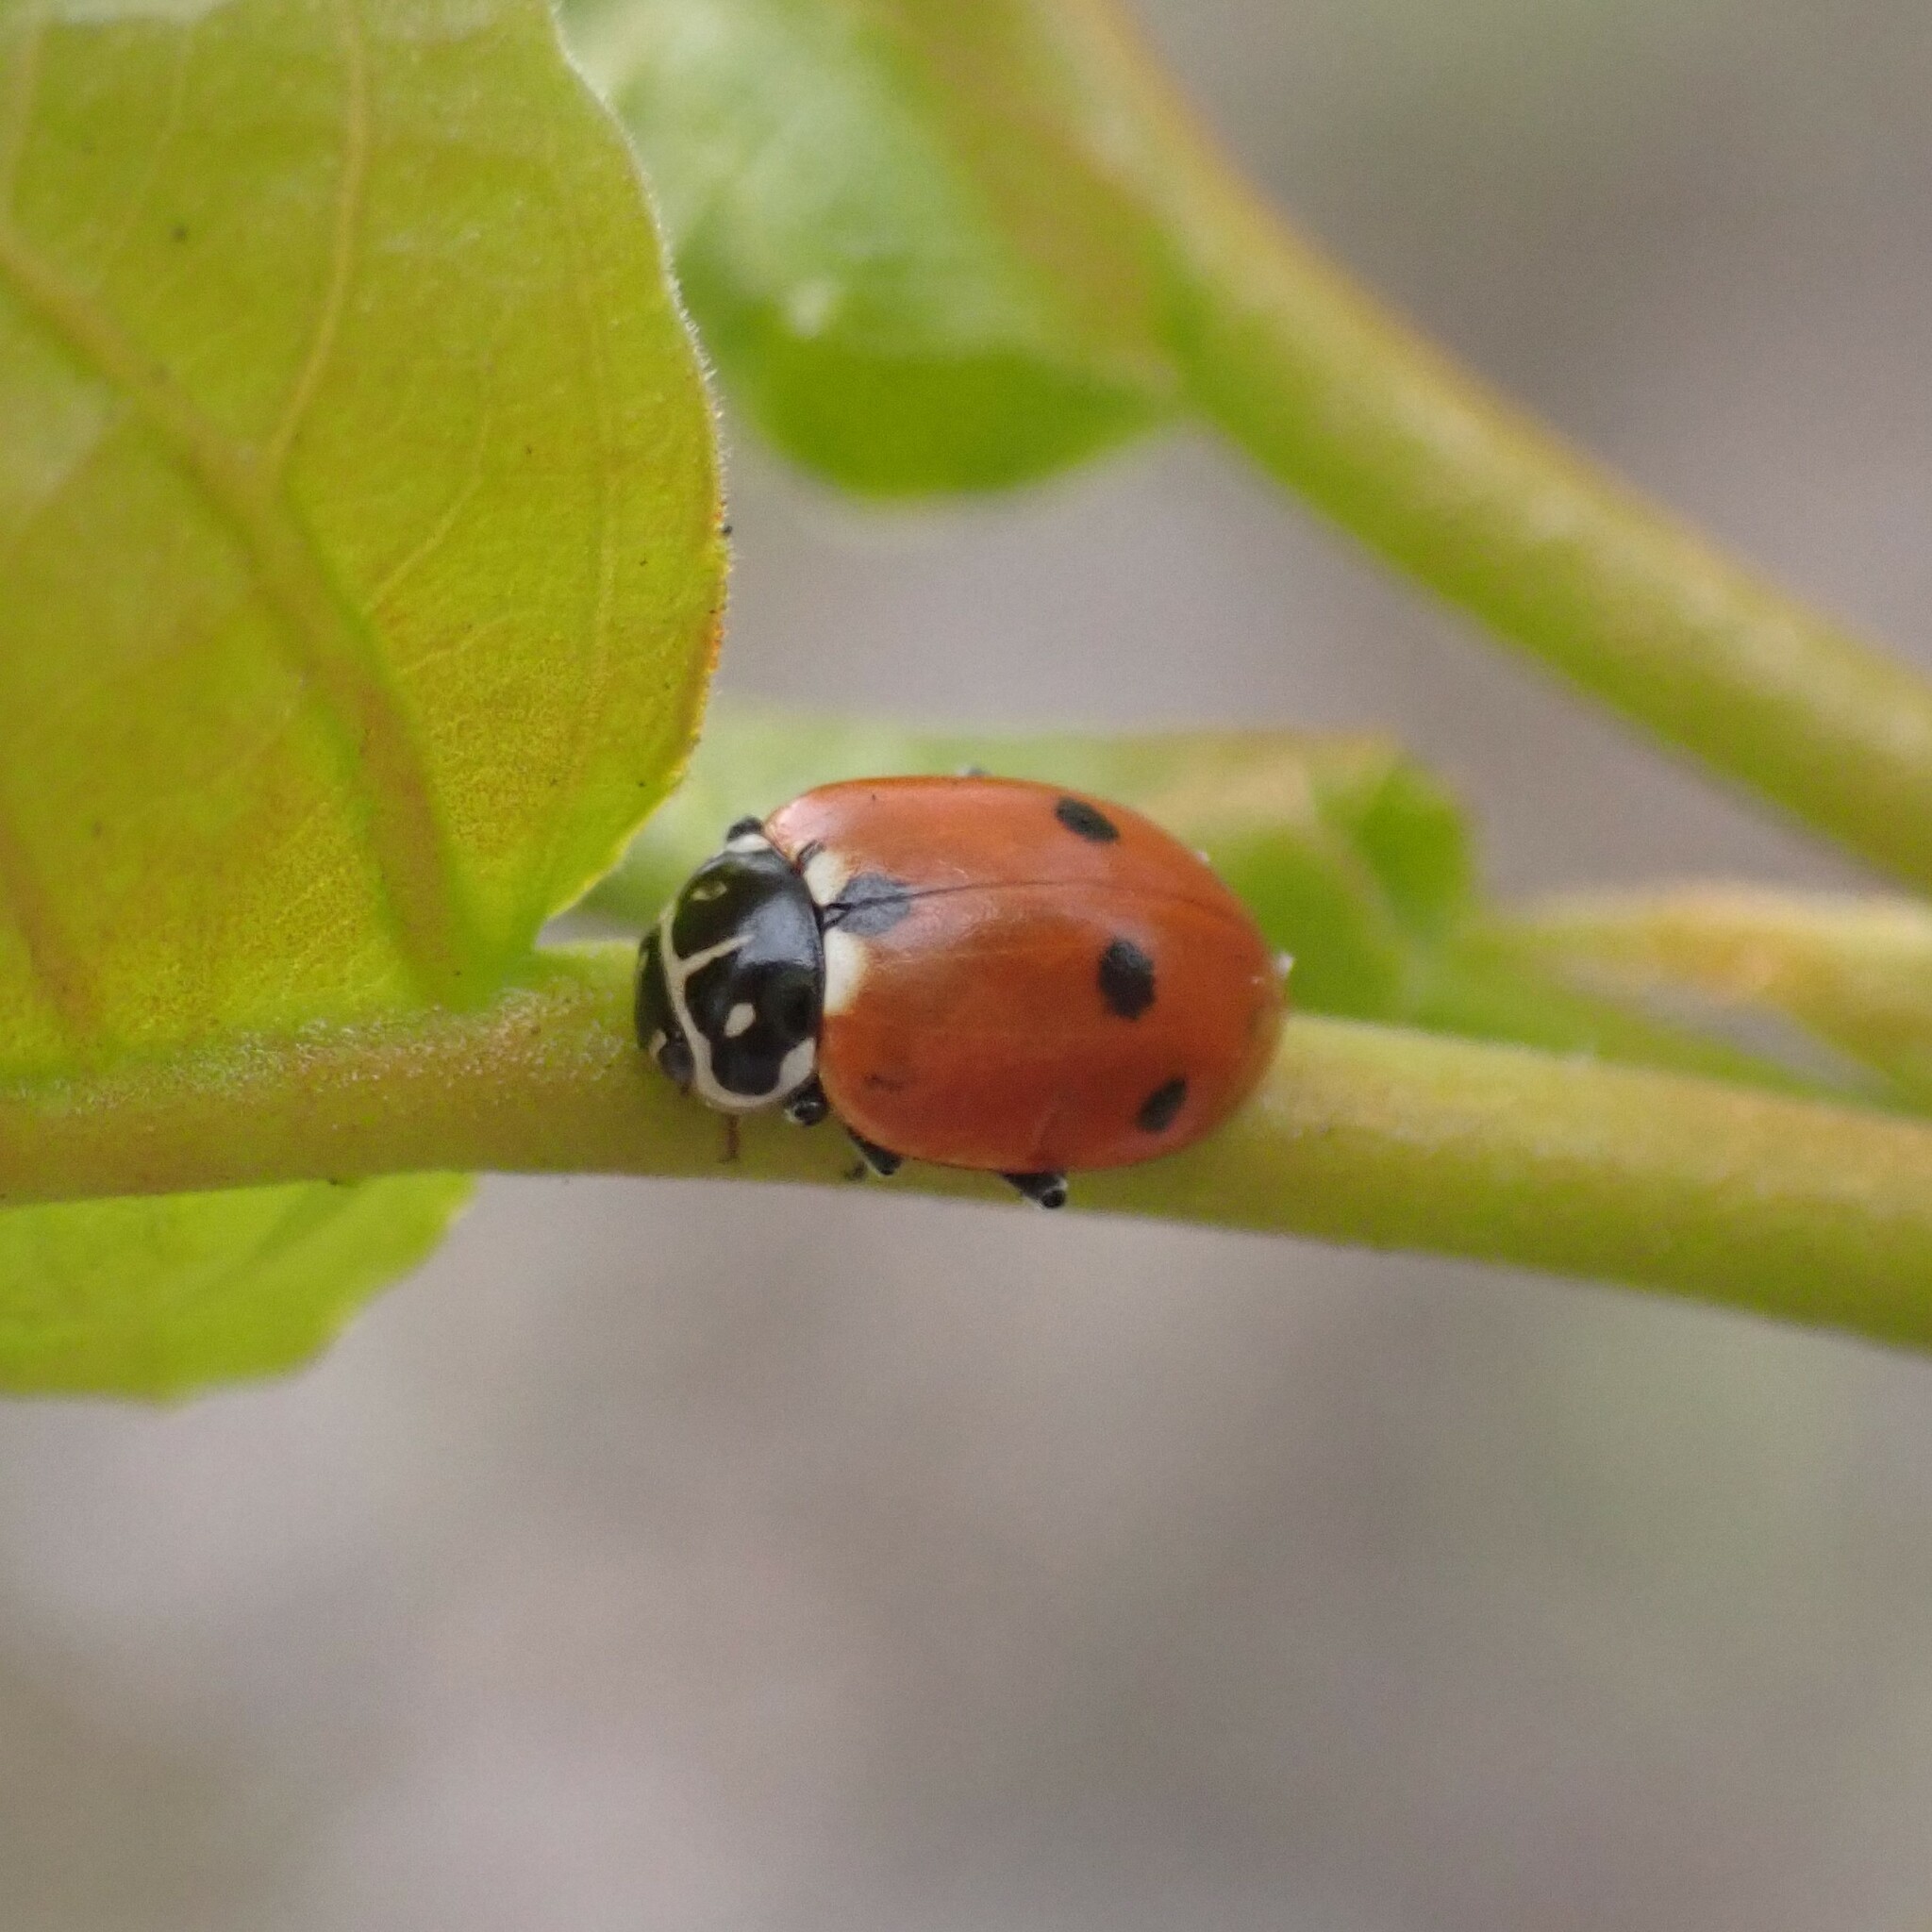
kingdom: Animalia
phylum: Arthropoda
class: Insecta
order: Coleoptera
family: Coccinellidae
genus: Hippodamia
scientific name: Hippodamia variegata
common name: Ladybird beetle
